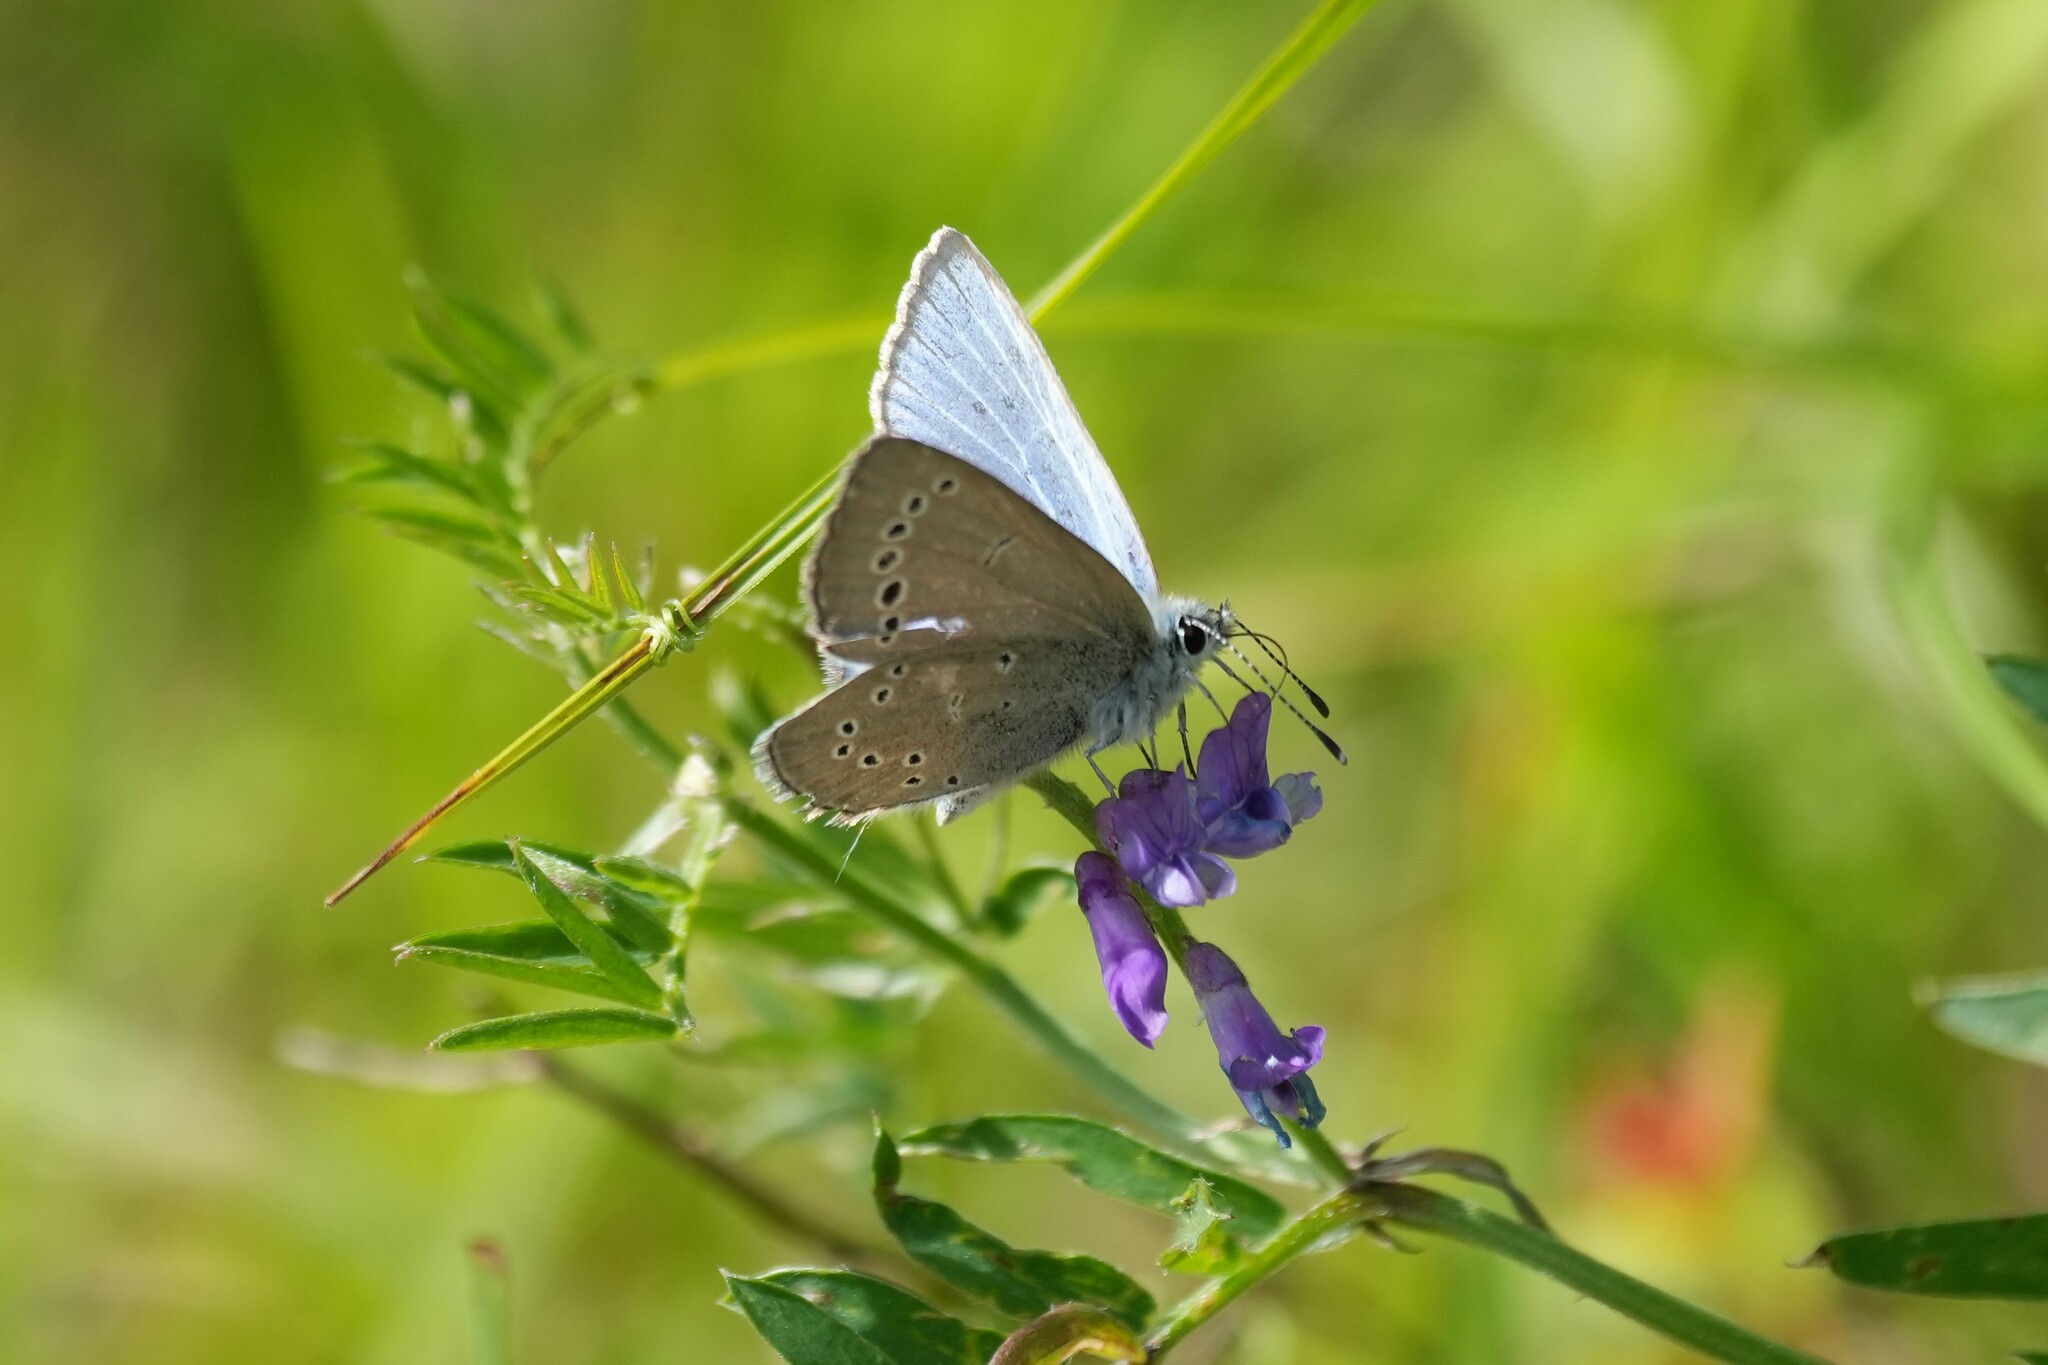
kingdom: Animalia
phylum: Arthropoda
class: Insecta
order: Lepidoptera
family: Lycaenidae
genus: Glaucopsyche
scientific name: Glaucopsyche lygdamus
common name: Silvery blue
